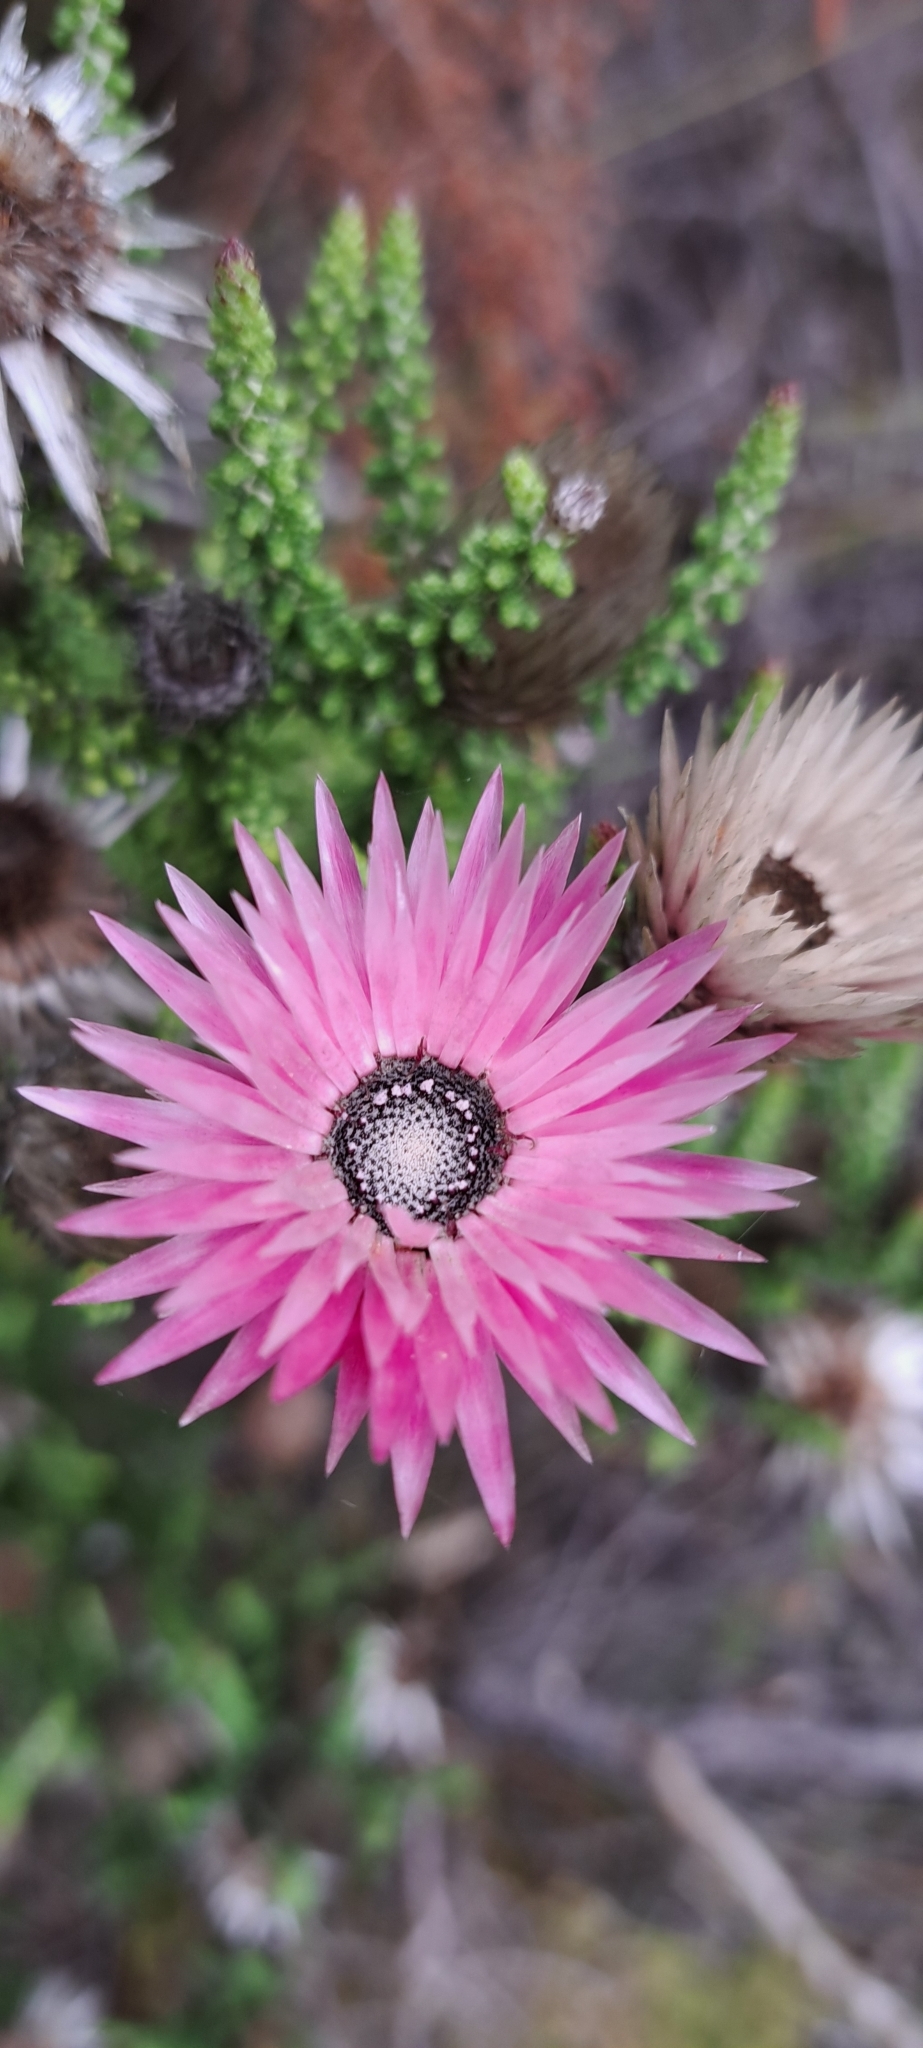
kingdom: Plantae
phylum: Tracheophyta
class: Magnoliopsida
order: Asterales
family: Asteraceae
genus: Phaenocoma
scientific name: Phaenocoma prolifera
